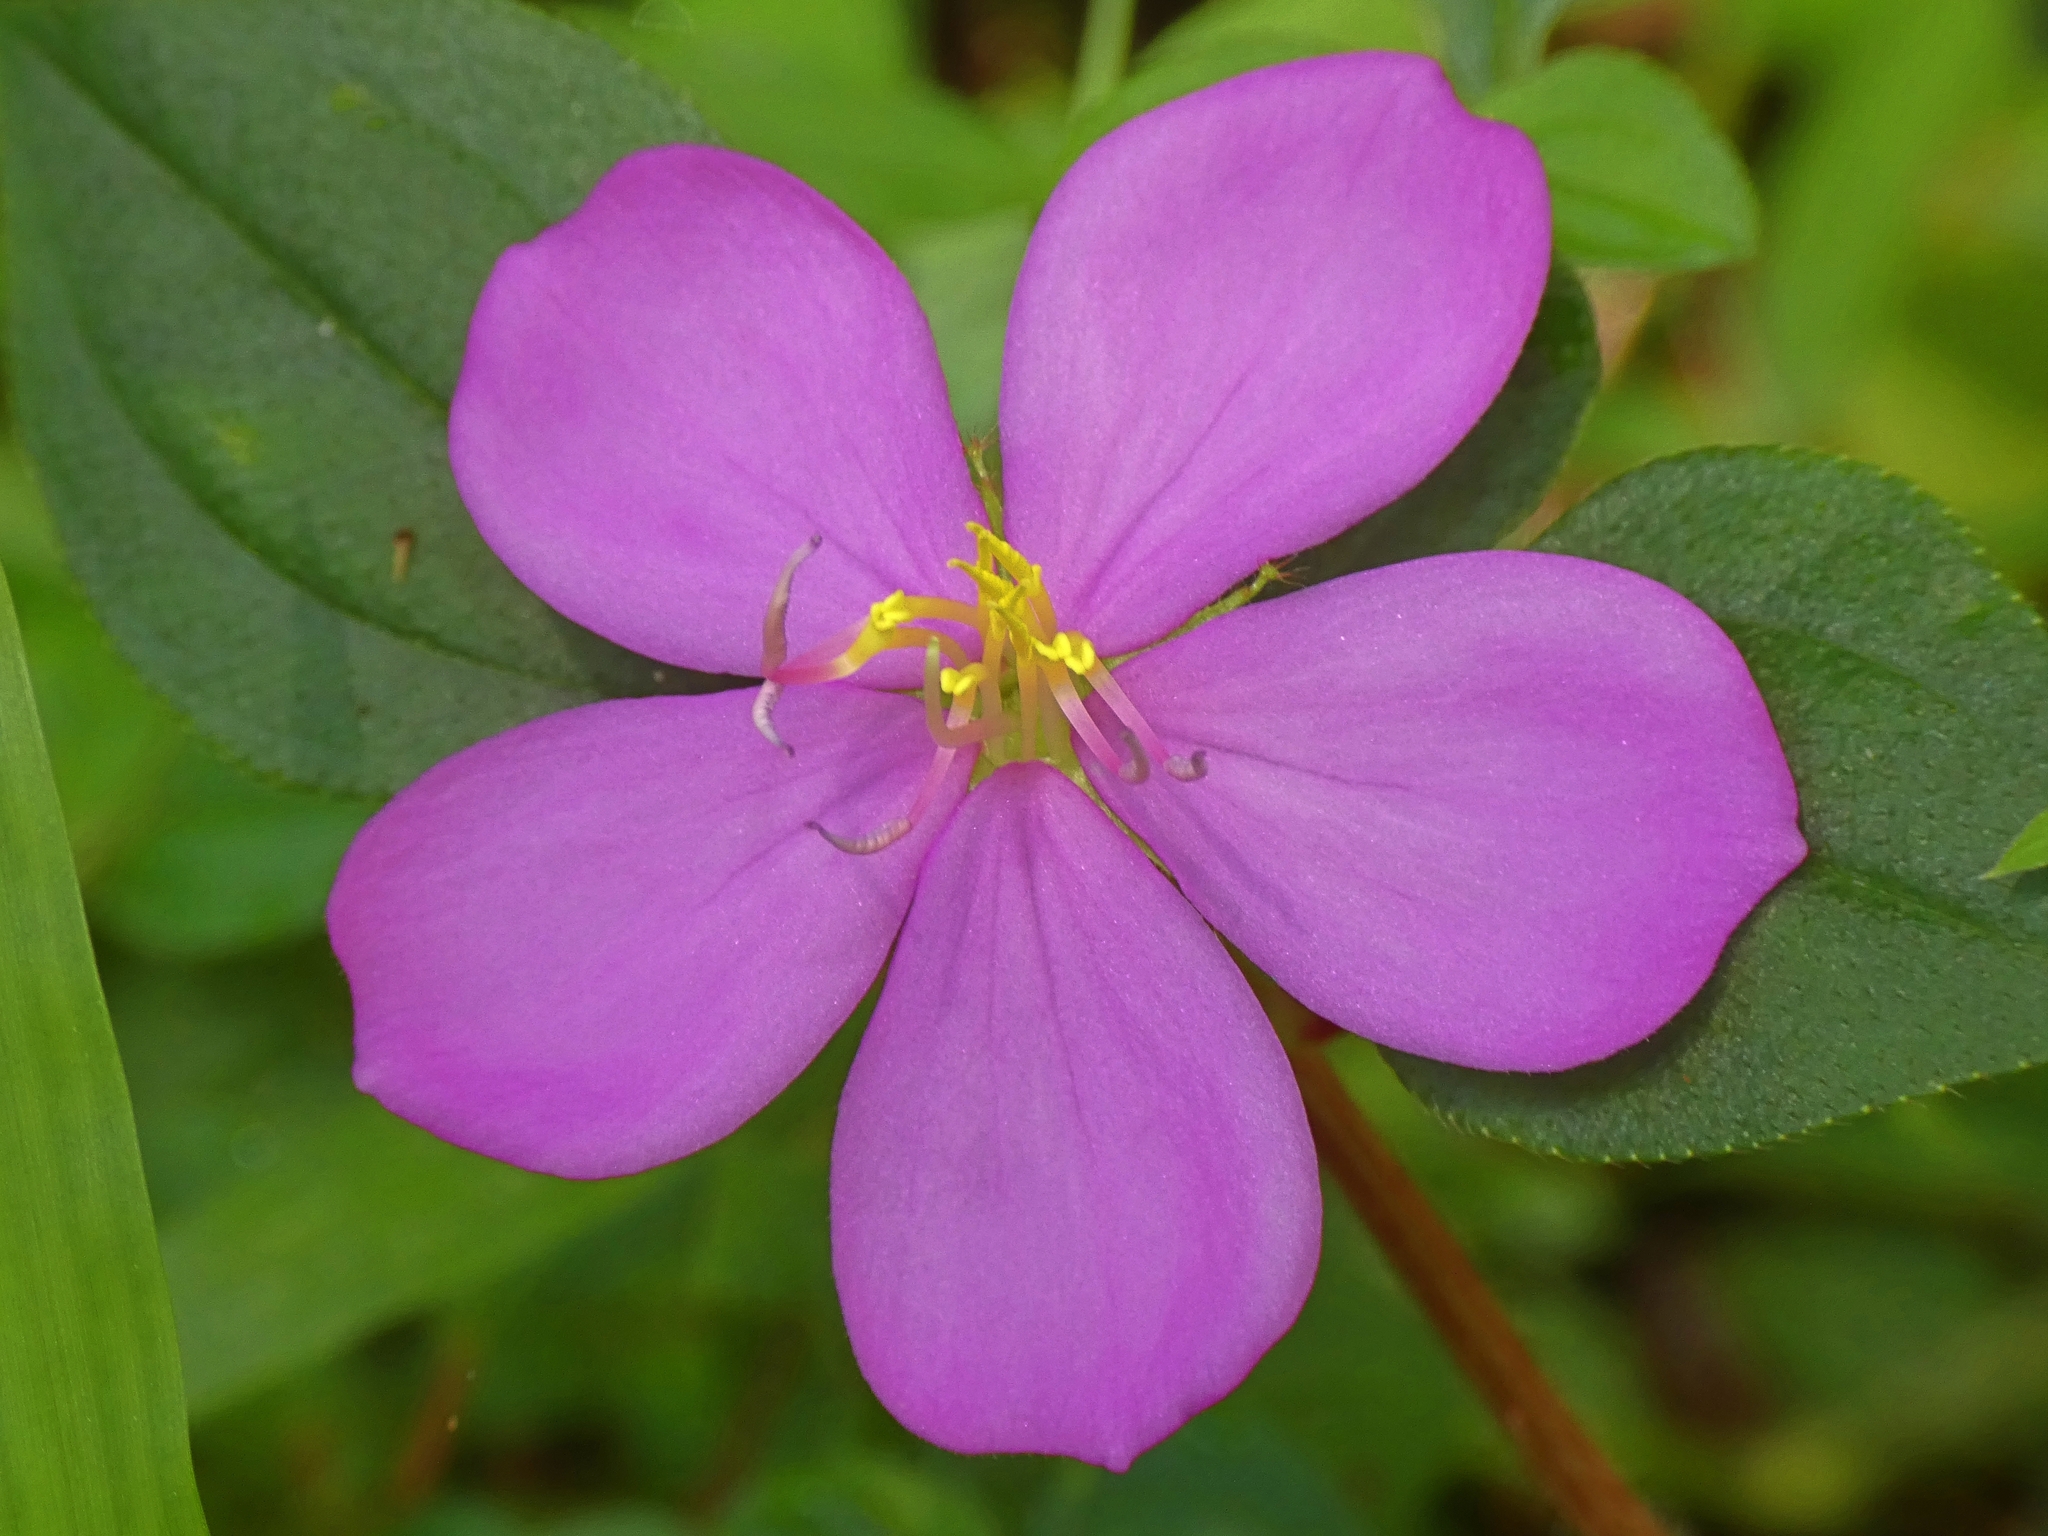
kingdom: Plantae
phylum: Tracheophyta
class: Magnoliopsida
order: Myrtales
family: Melastomataceae
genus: Heterotis
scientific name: Heterotis rotundifolia
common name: Pinklady
